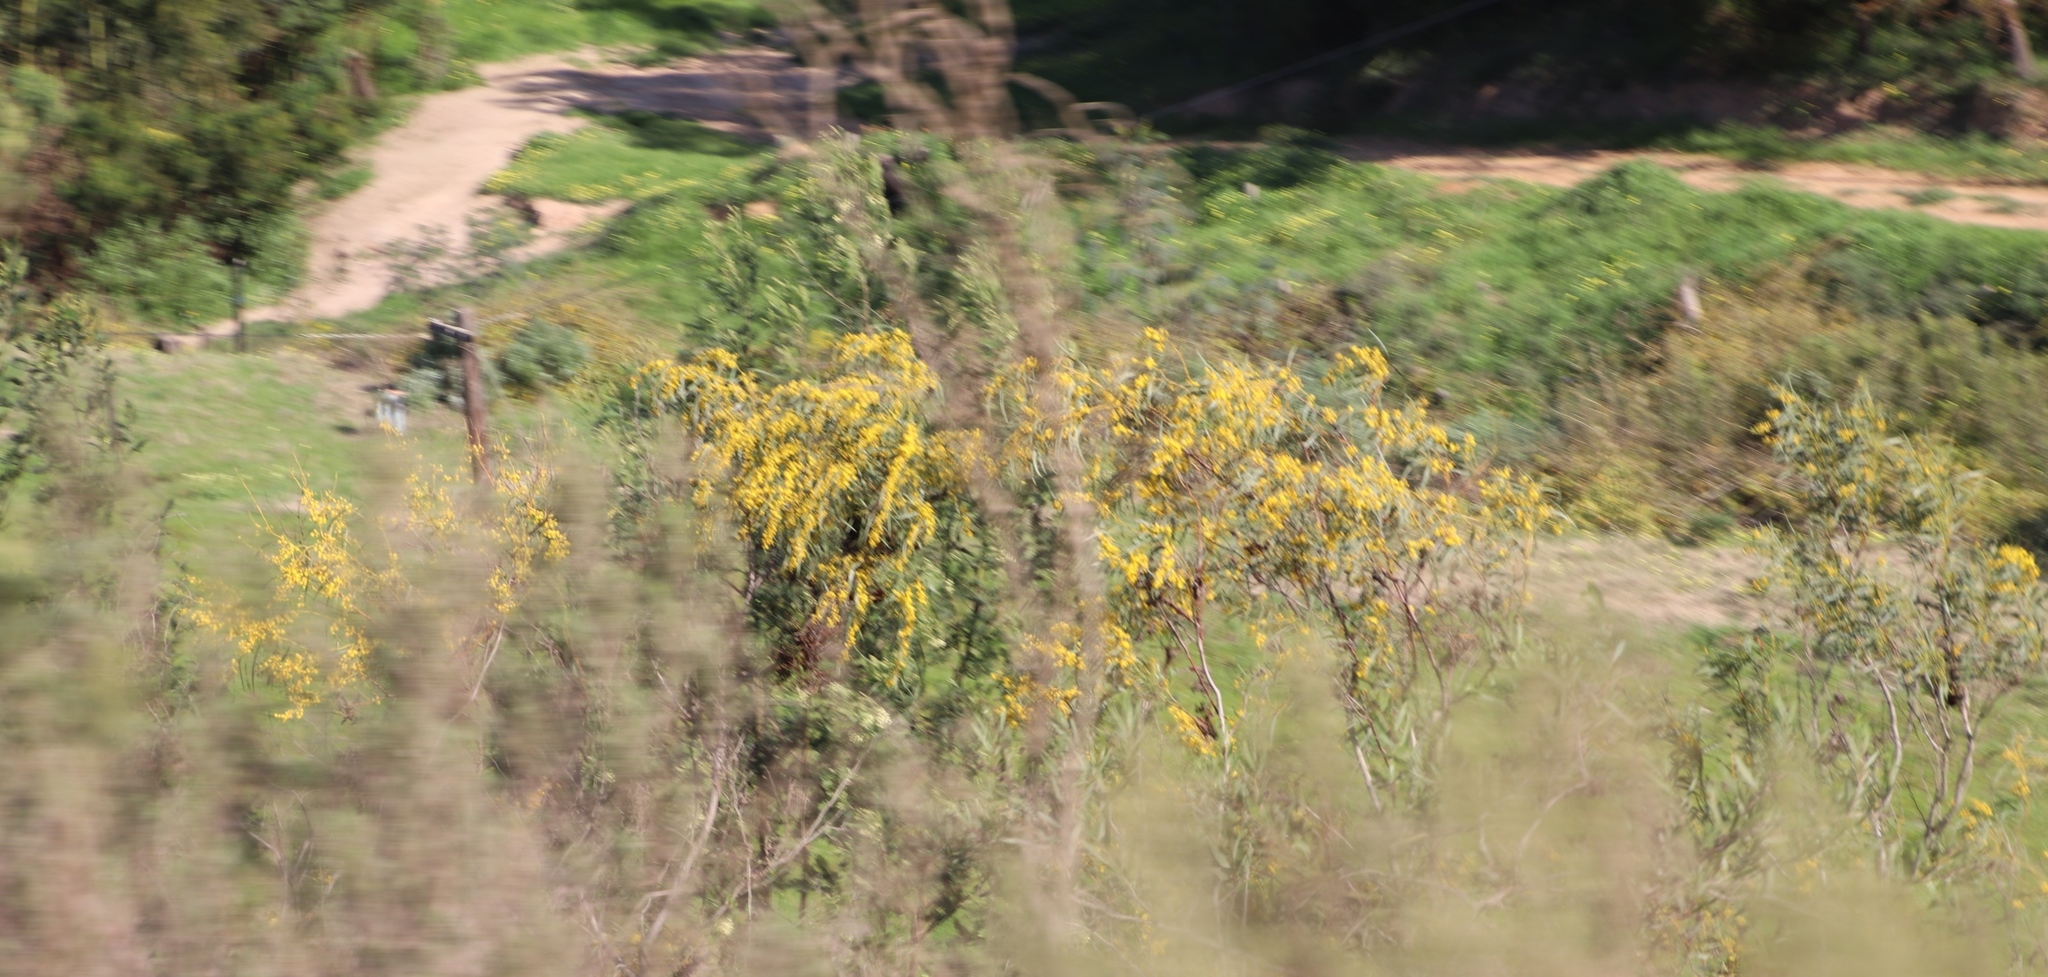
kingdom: Plantae
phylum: Tracheophyta
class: Magnoliopsida
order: Fabales
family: Fabaceae
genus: Acacia
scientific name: Acacia saligna
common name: Orange wattle
